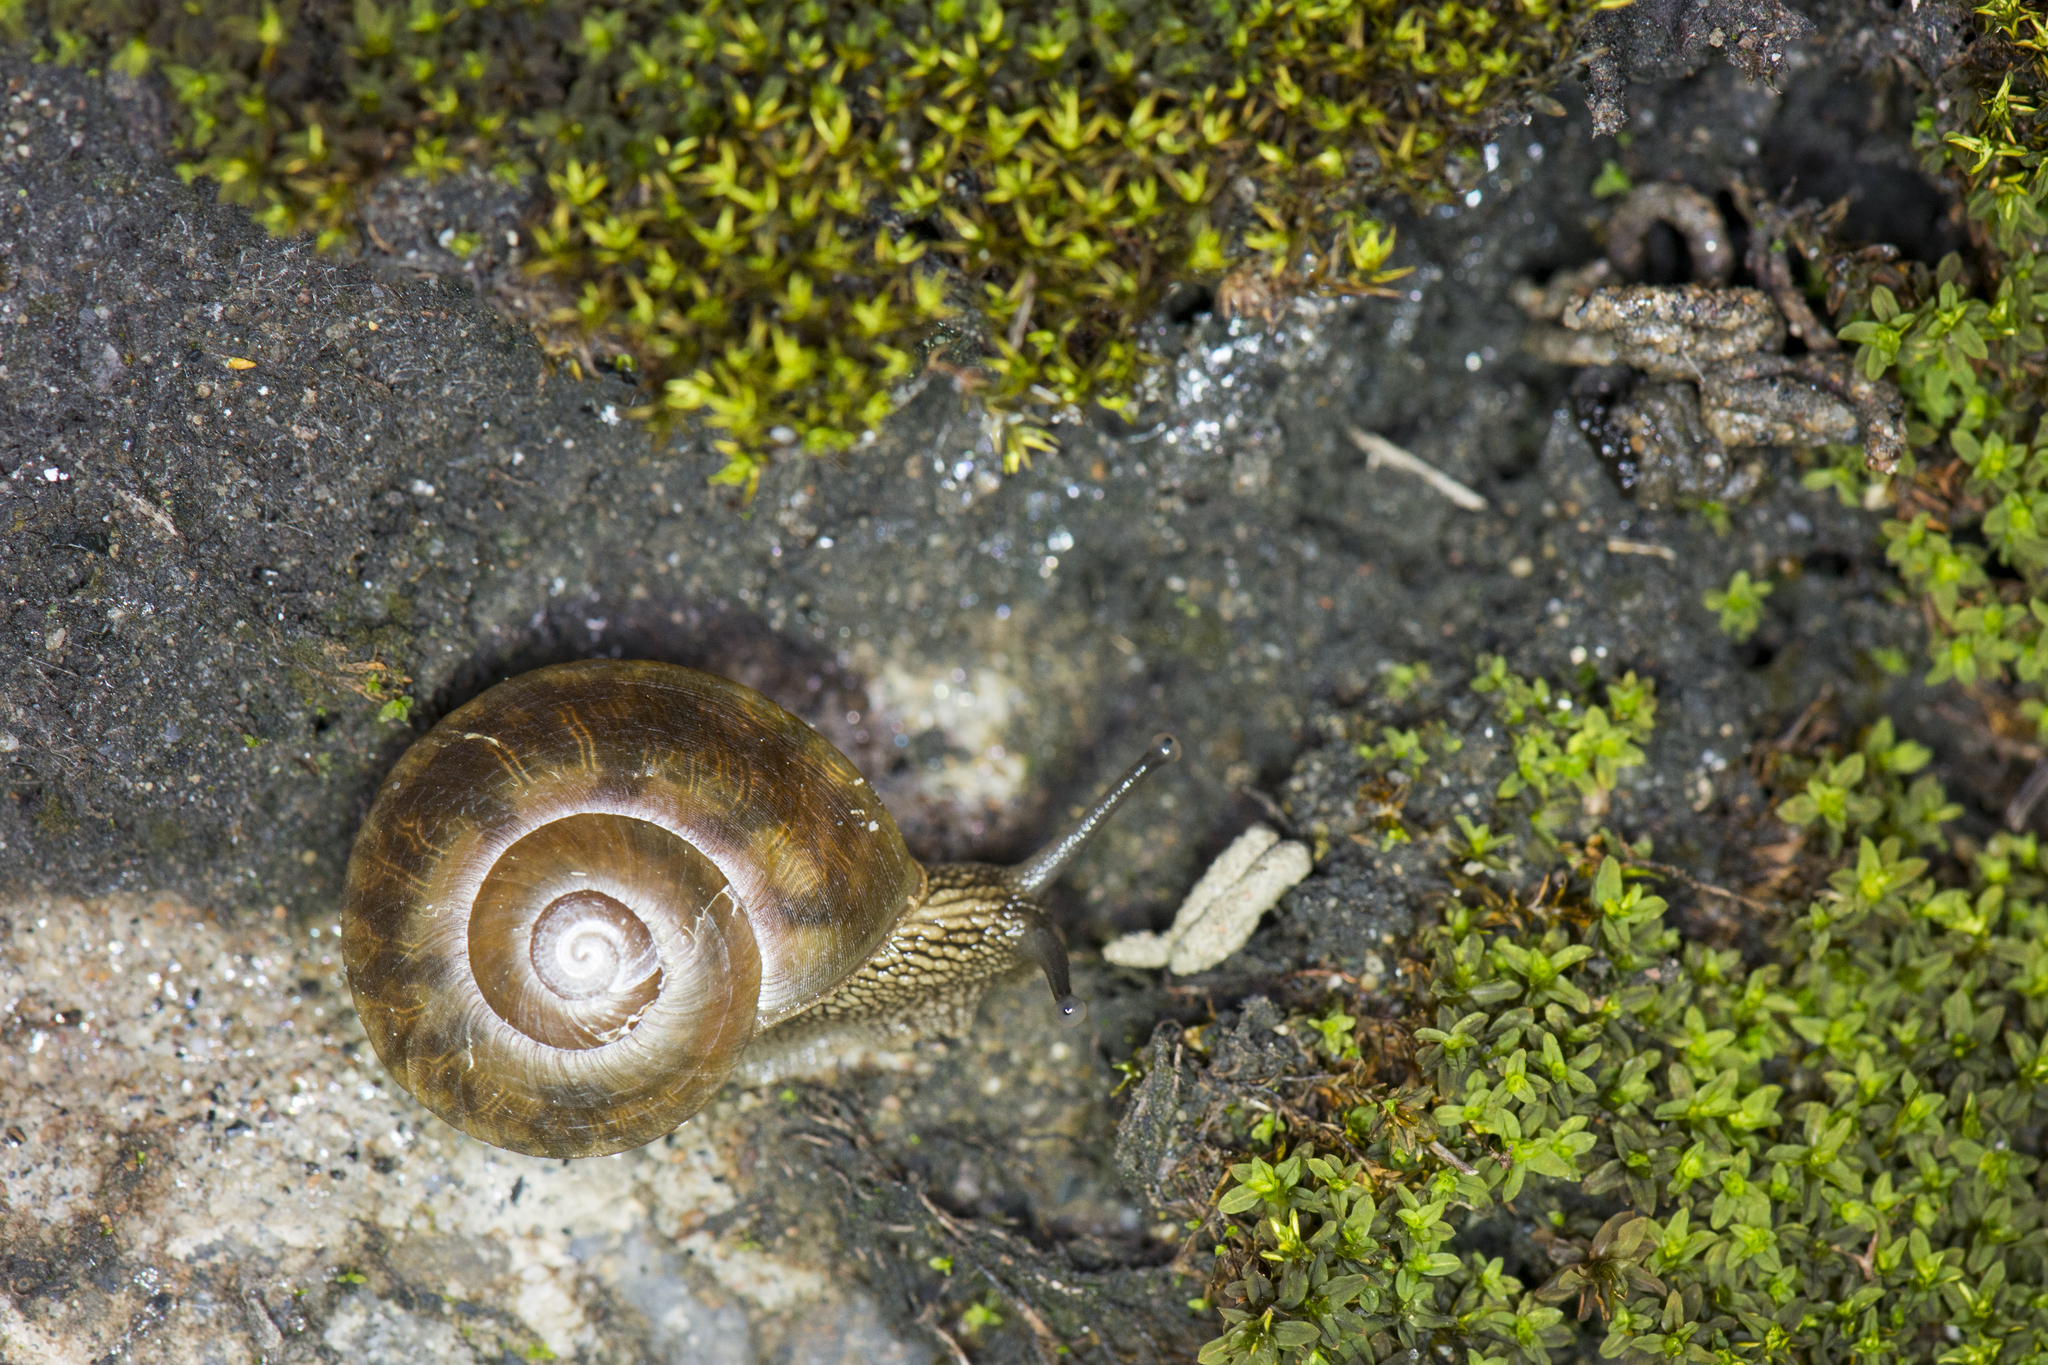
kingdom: Animalia
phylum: Mollusca
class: Gastropoda
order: Stylommatophora
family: Camaenidae
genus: Nesiohelix
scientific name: Nesiohelix swinhoei
